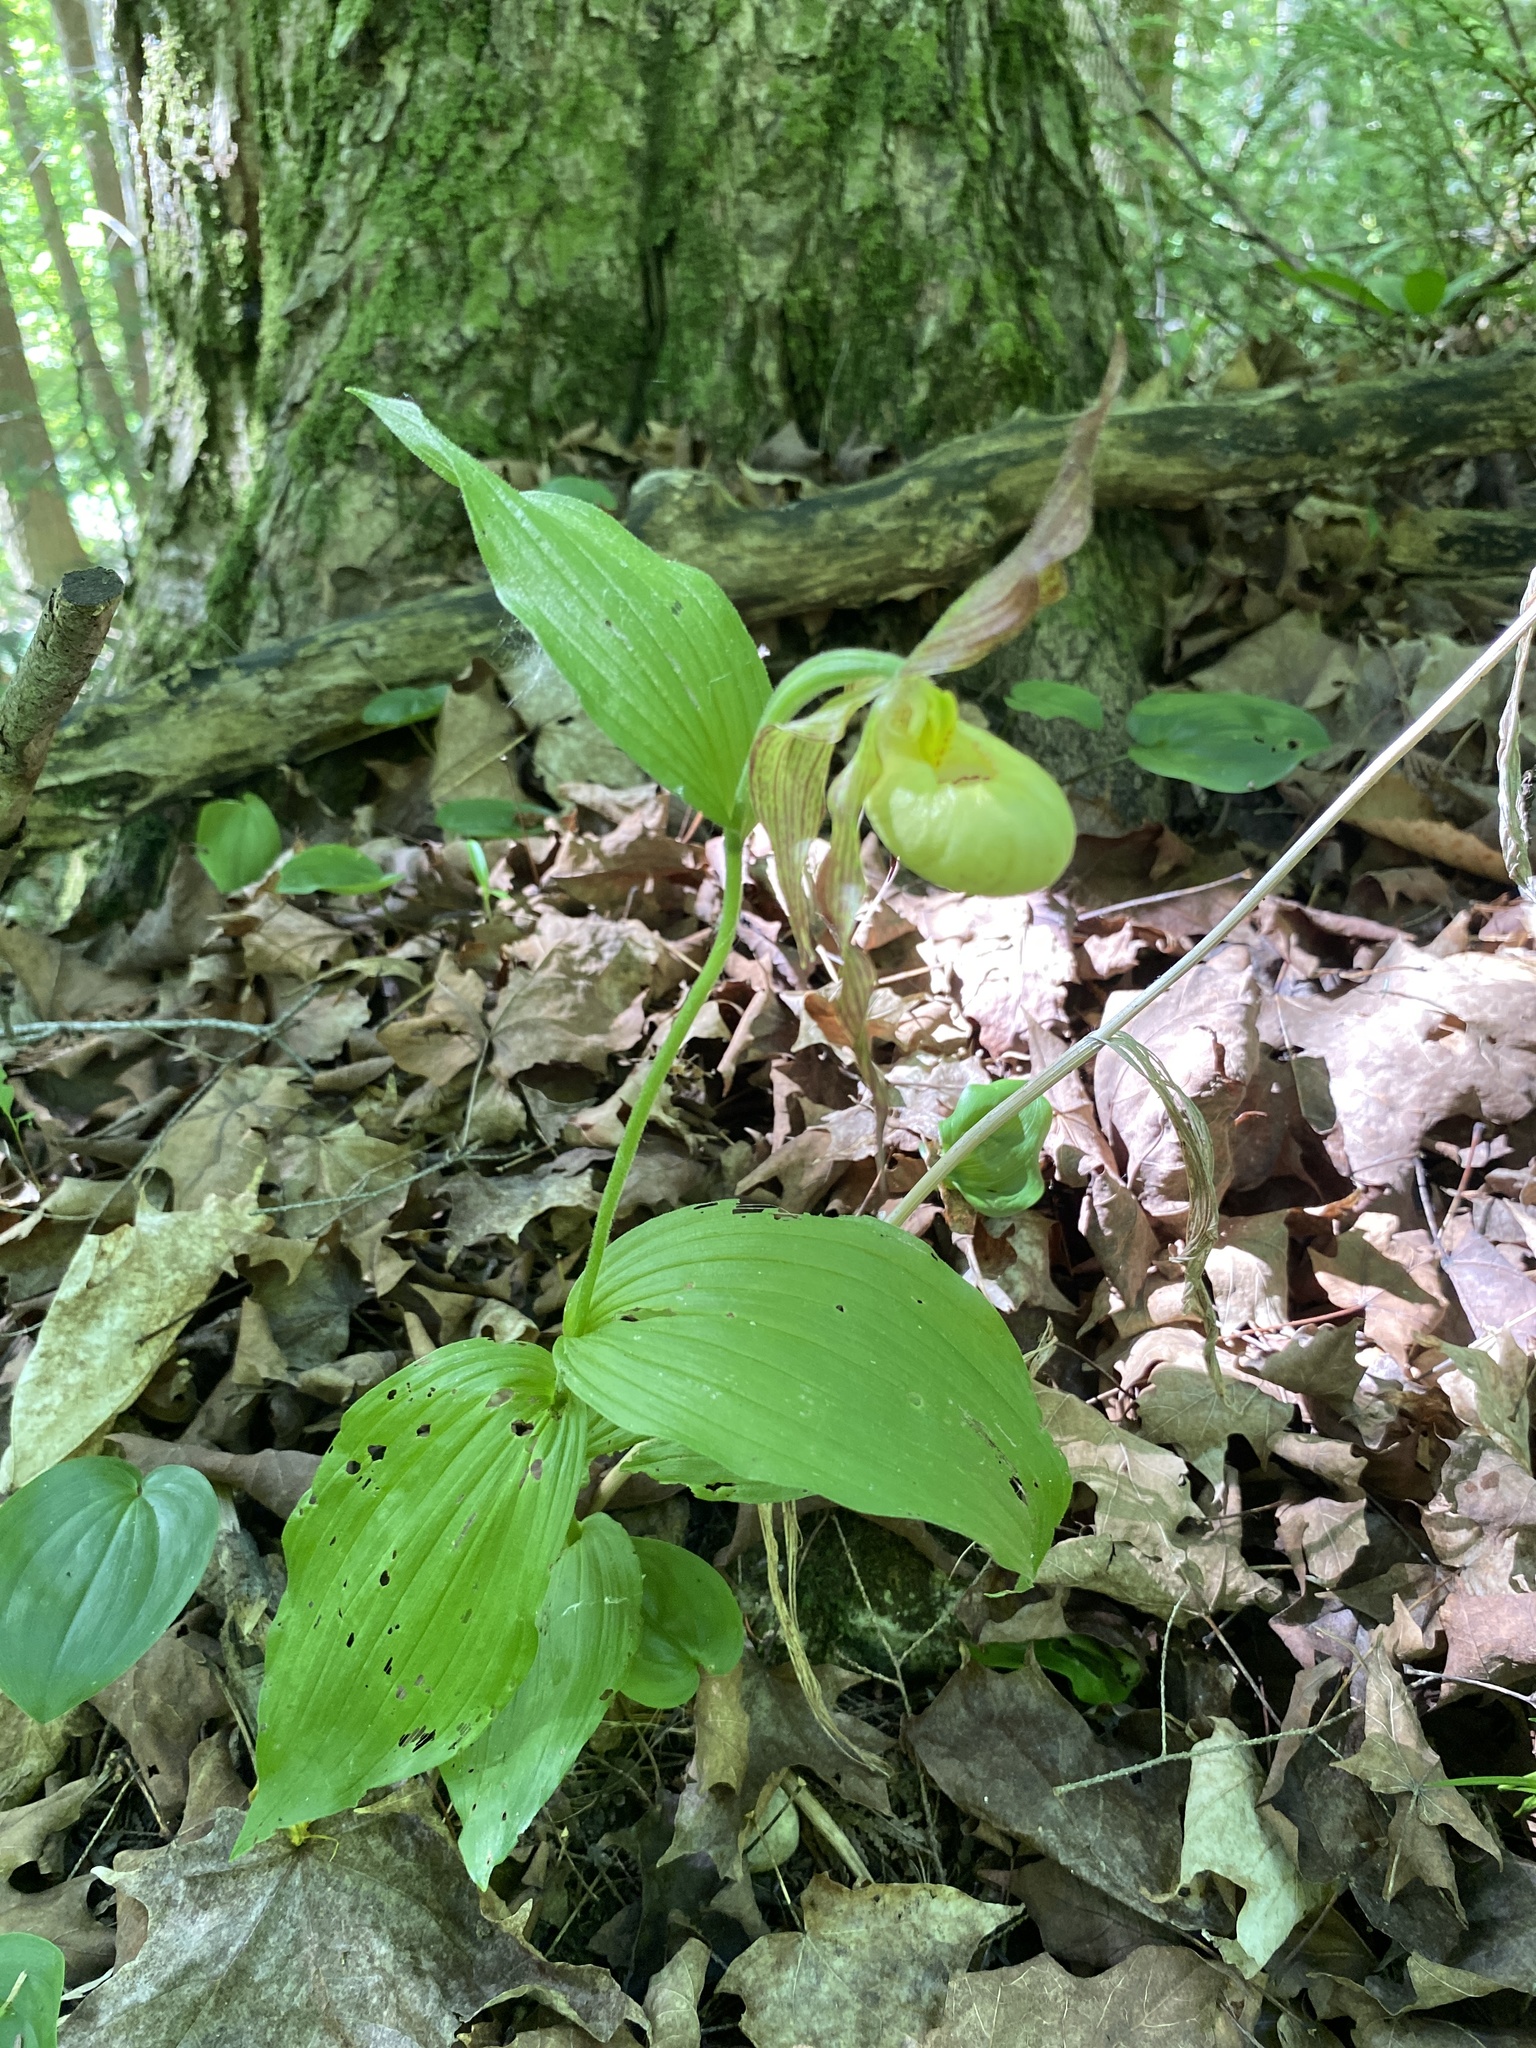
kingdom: Plantae
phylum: Tracheophyta
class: Liliopsida
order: Asparagales
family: Orchidaceae
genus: Cypripedium
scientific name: Cypripedium parviflorum
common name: American yellow lady's-slipper
